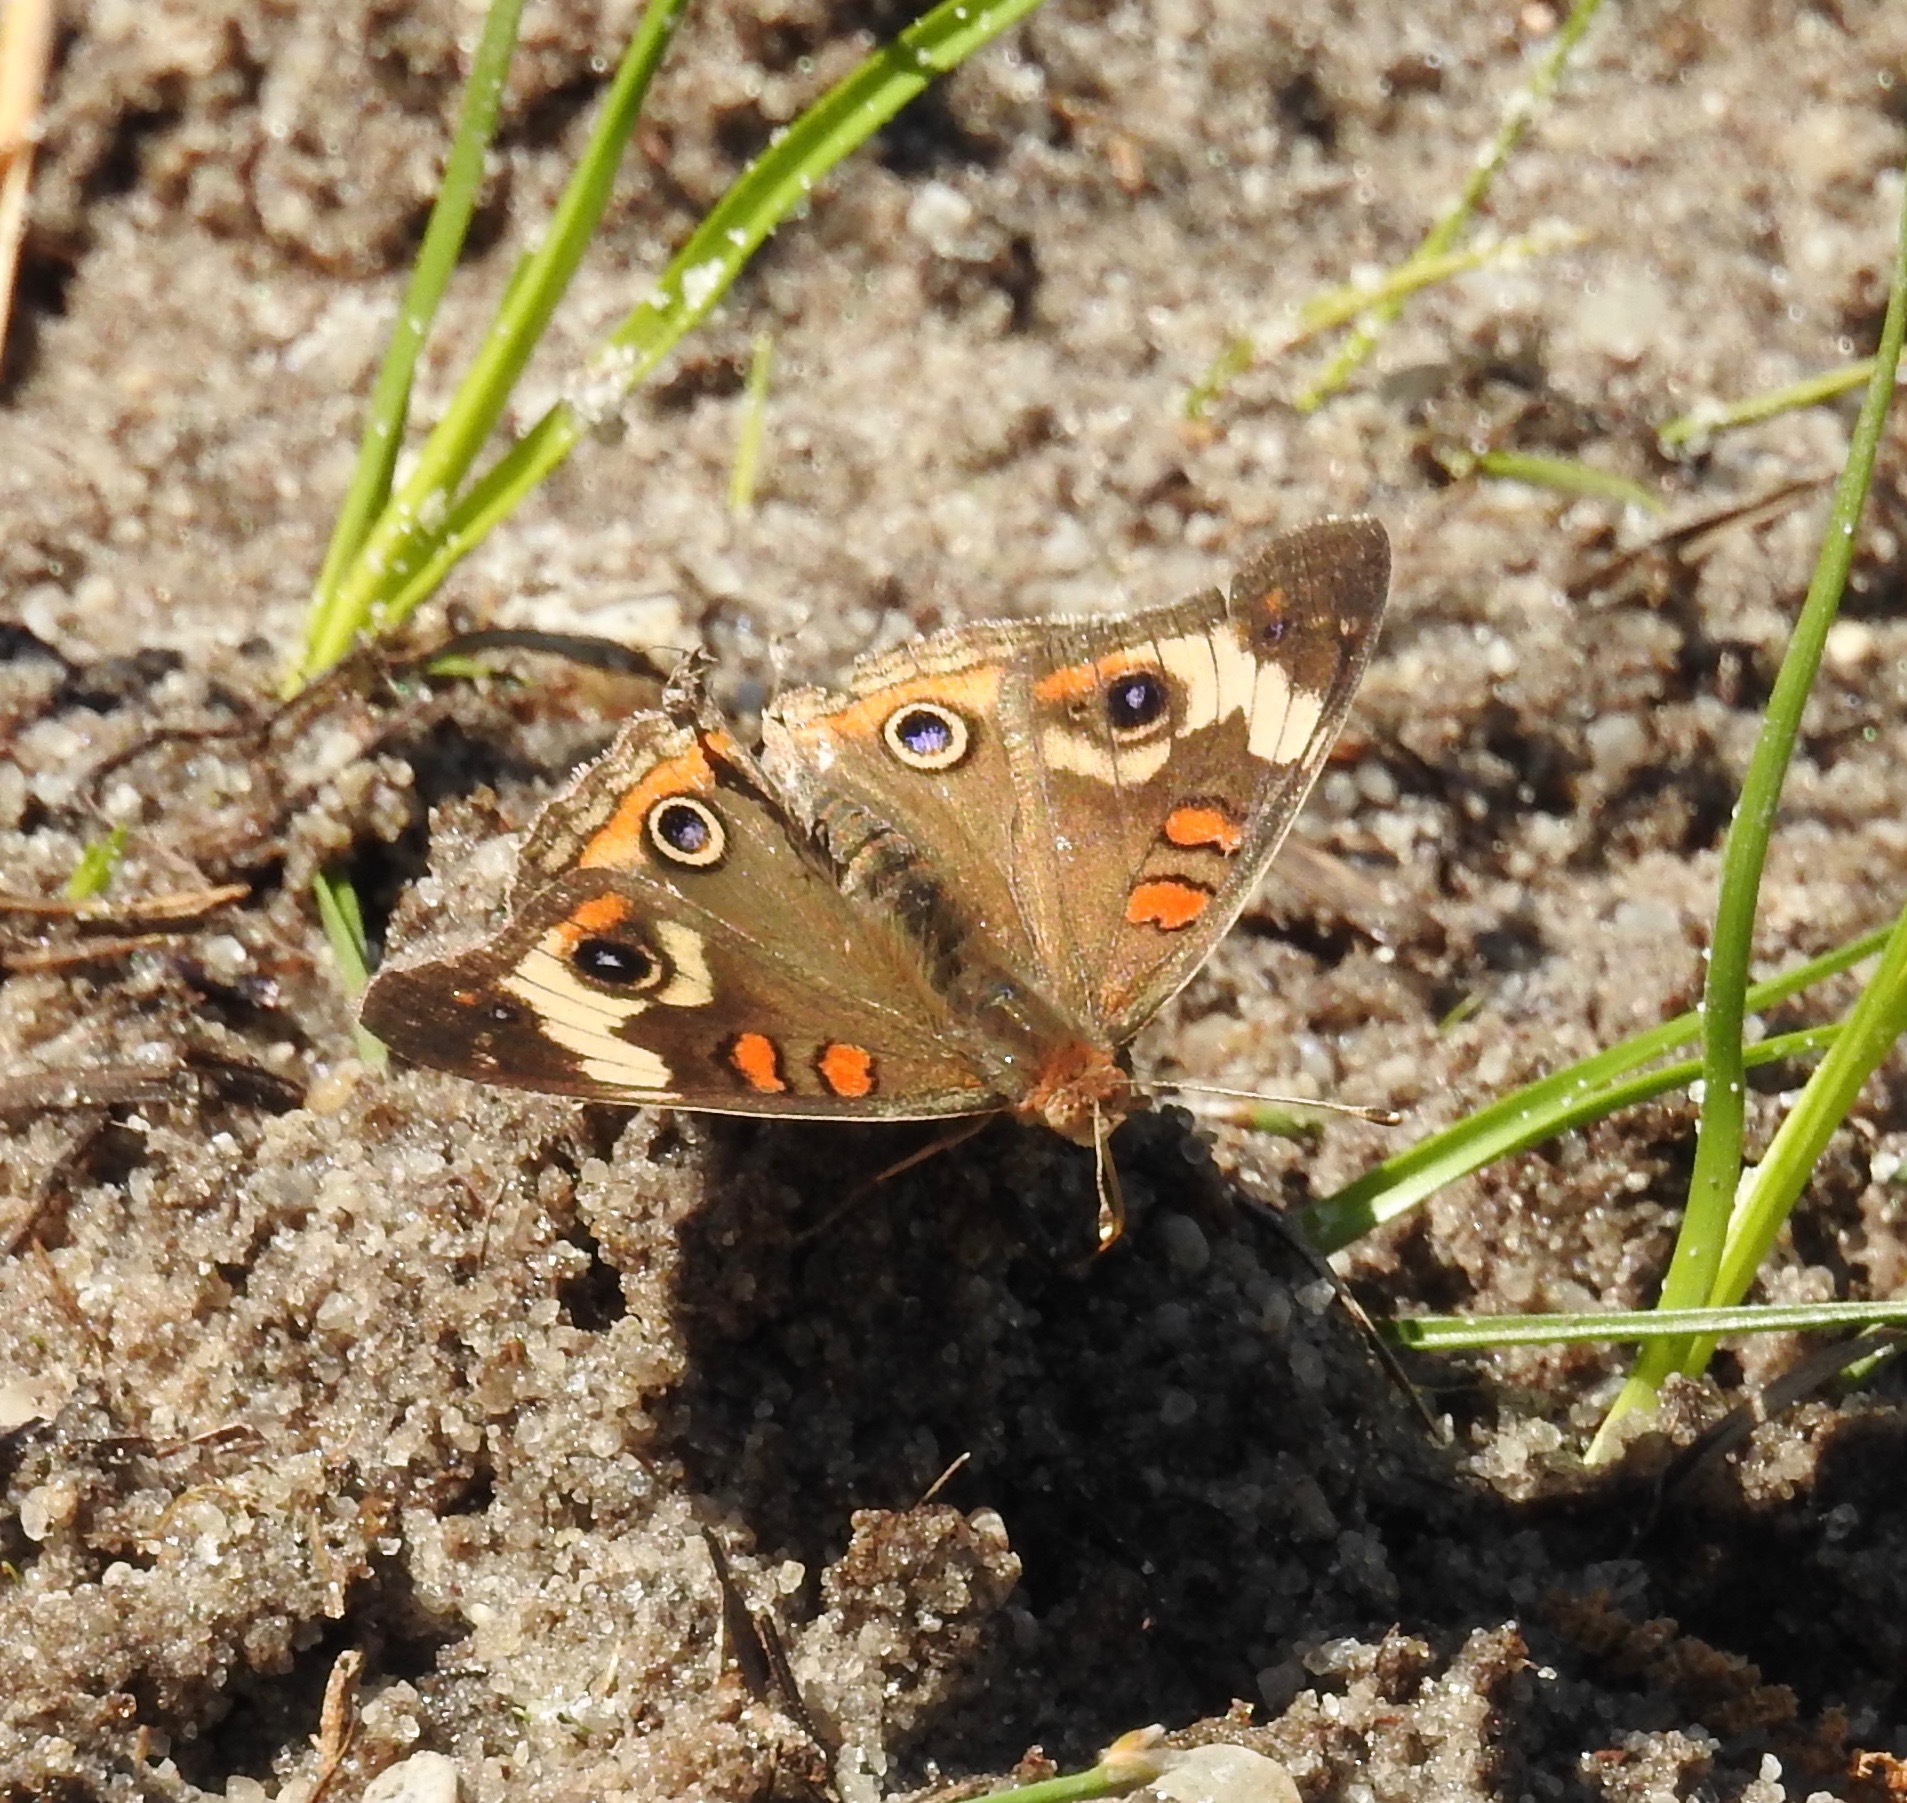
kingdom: Animalia
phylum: Arthropoda
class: Insecta
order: Lepidoptera
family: Nymphalidae
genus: Junonia
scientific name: Junonia coenia
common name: Common buckeye
